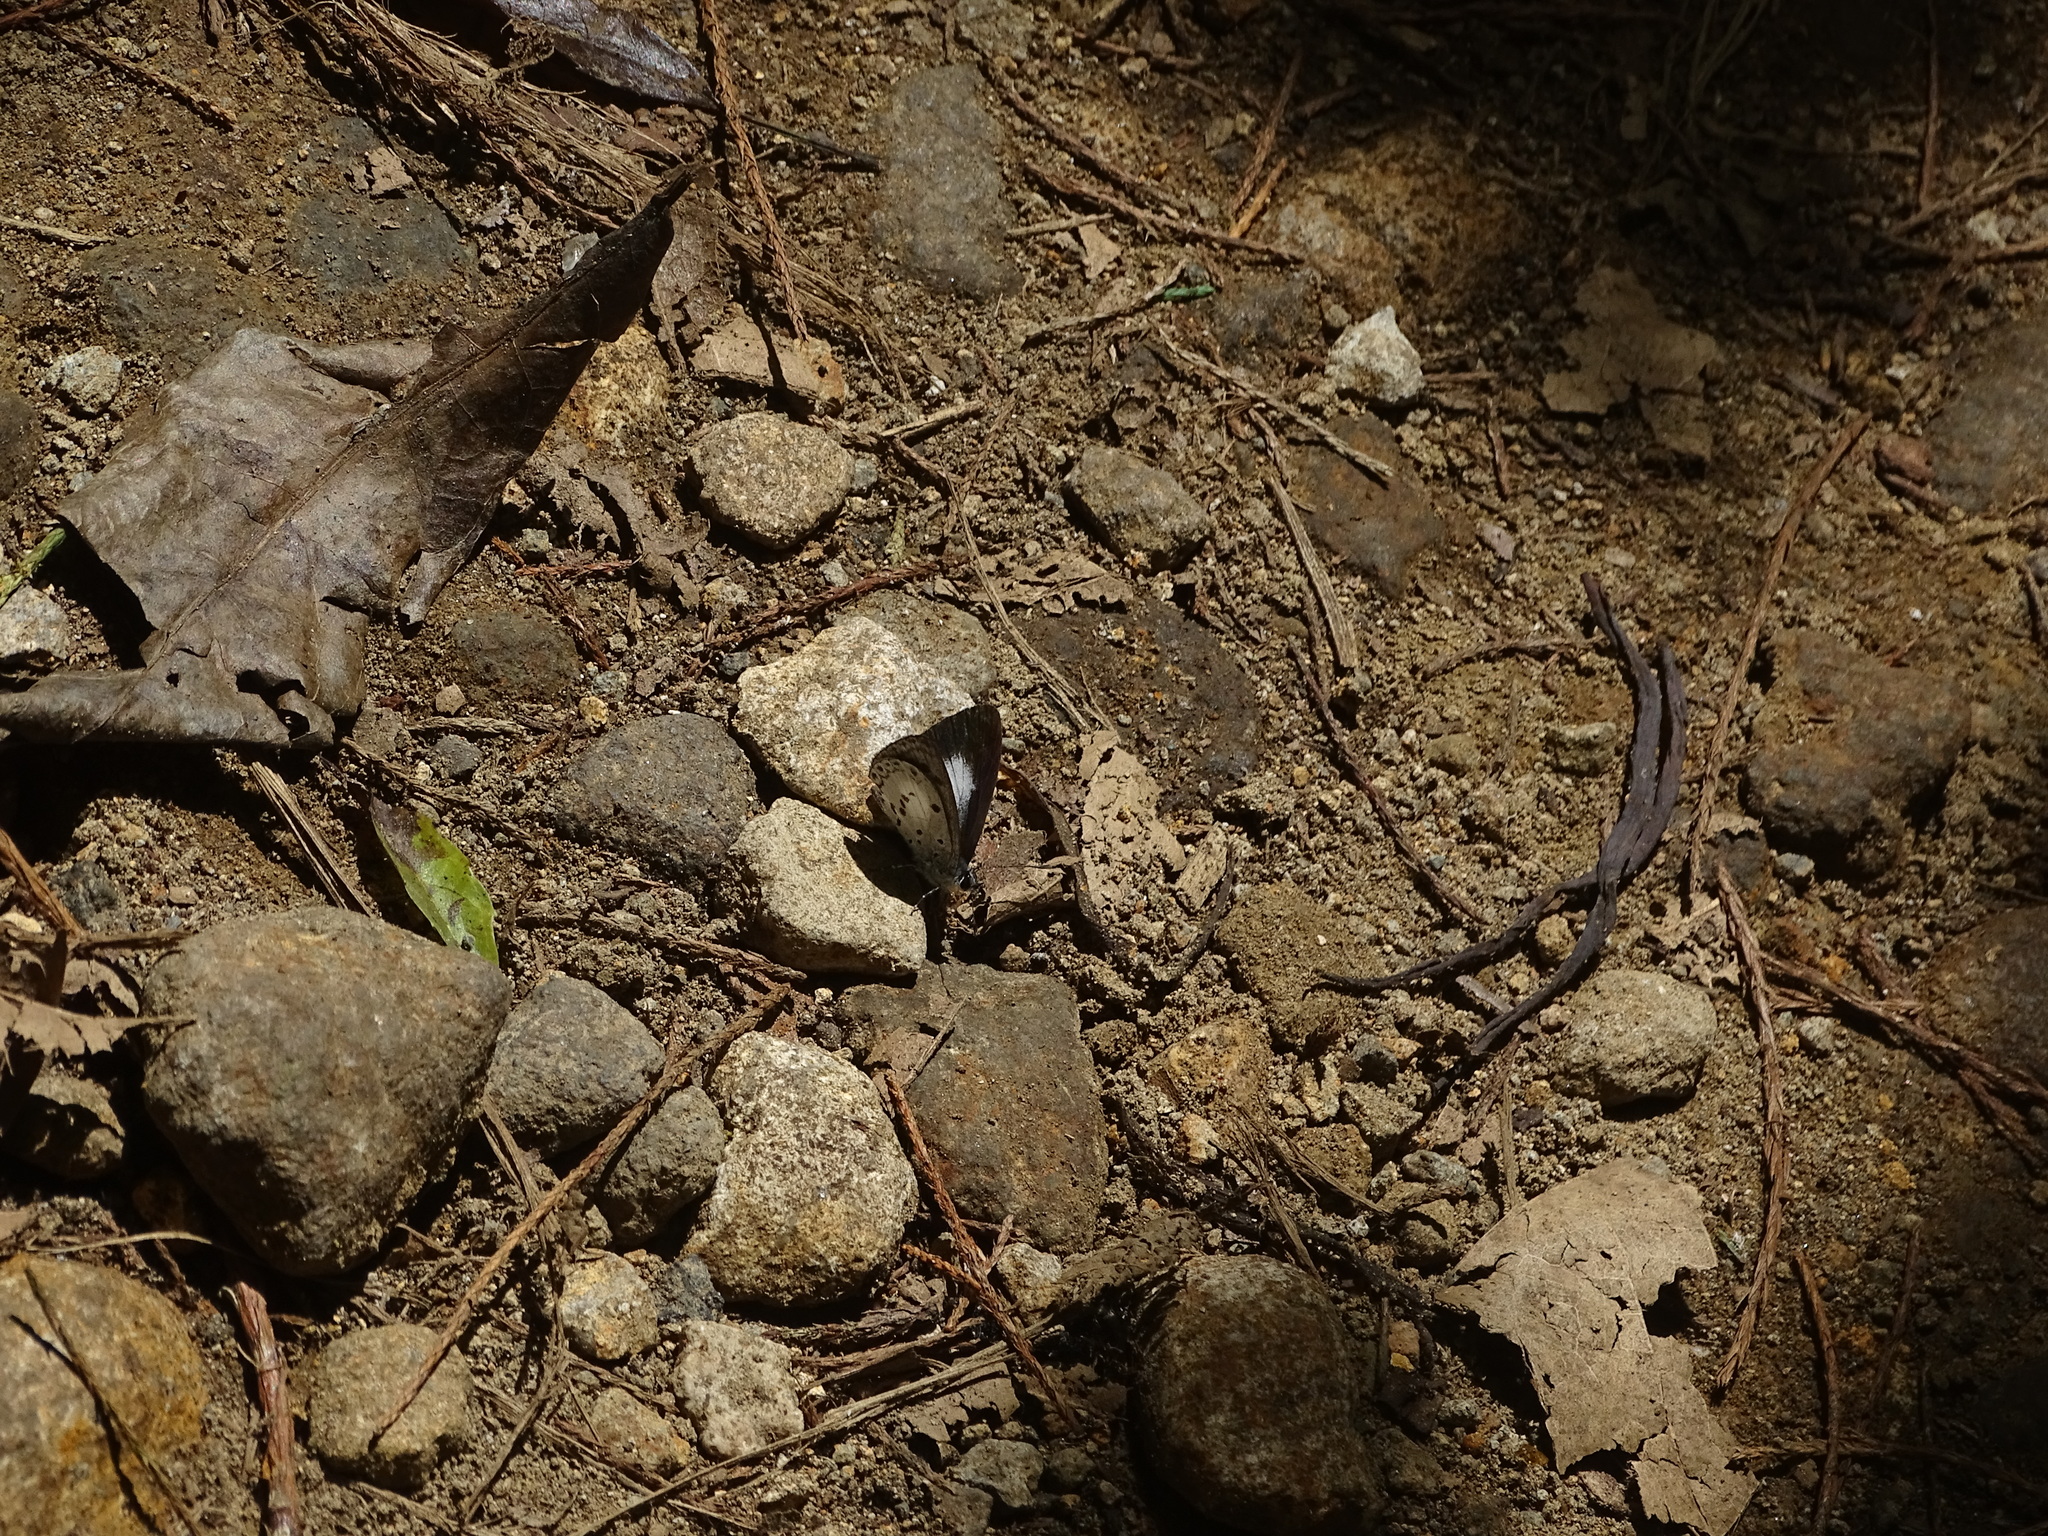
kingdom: Animalia
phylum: Arthropoda
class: Insecta
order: Lepidoptera
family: Lycaenidae
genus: Oreolyce
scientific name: Oreolyce quadriplaga
